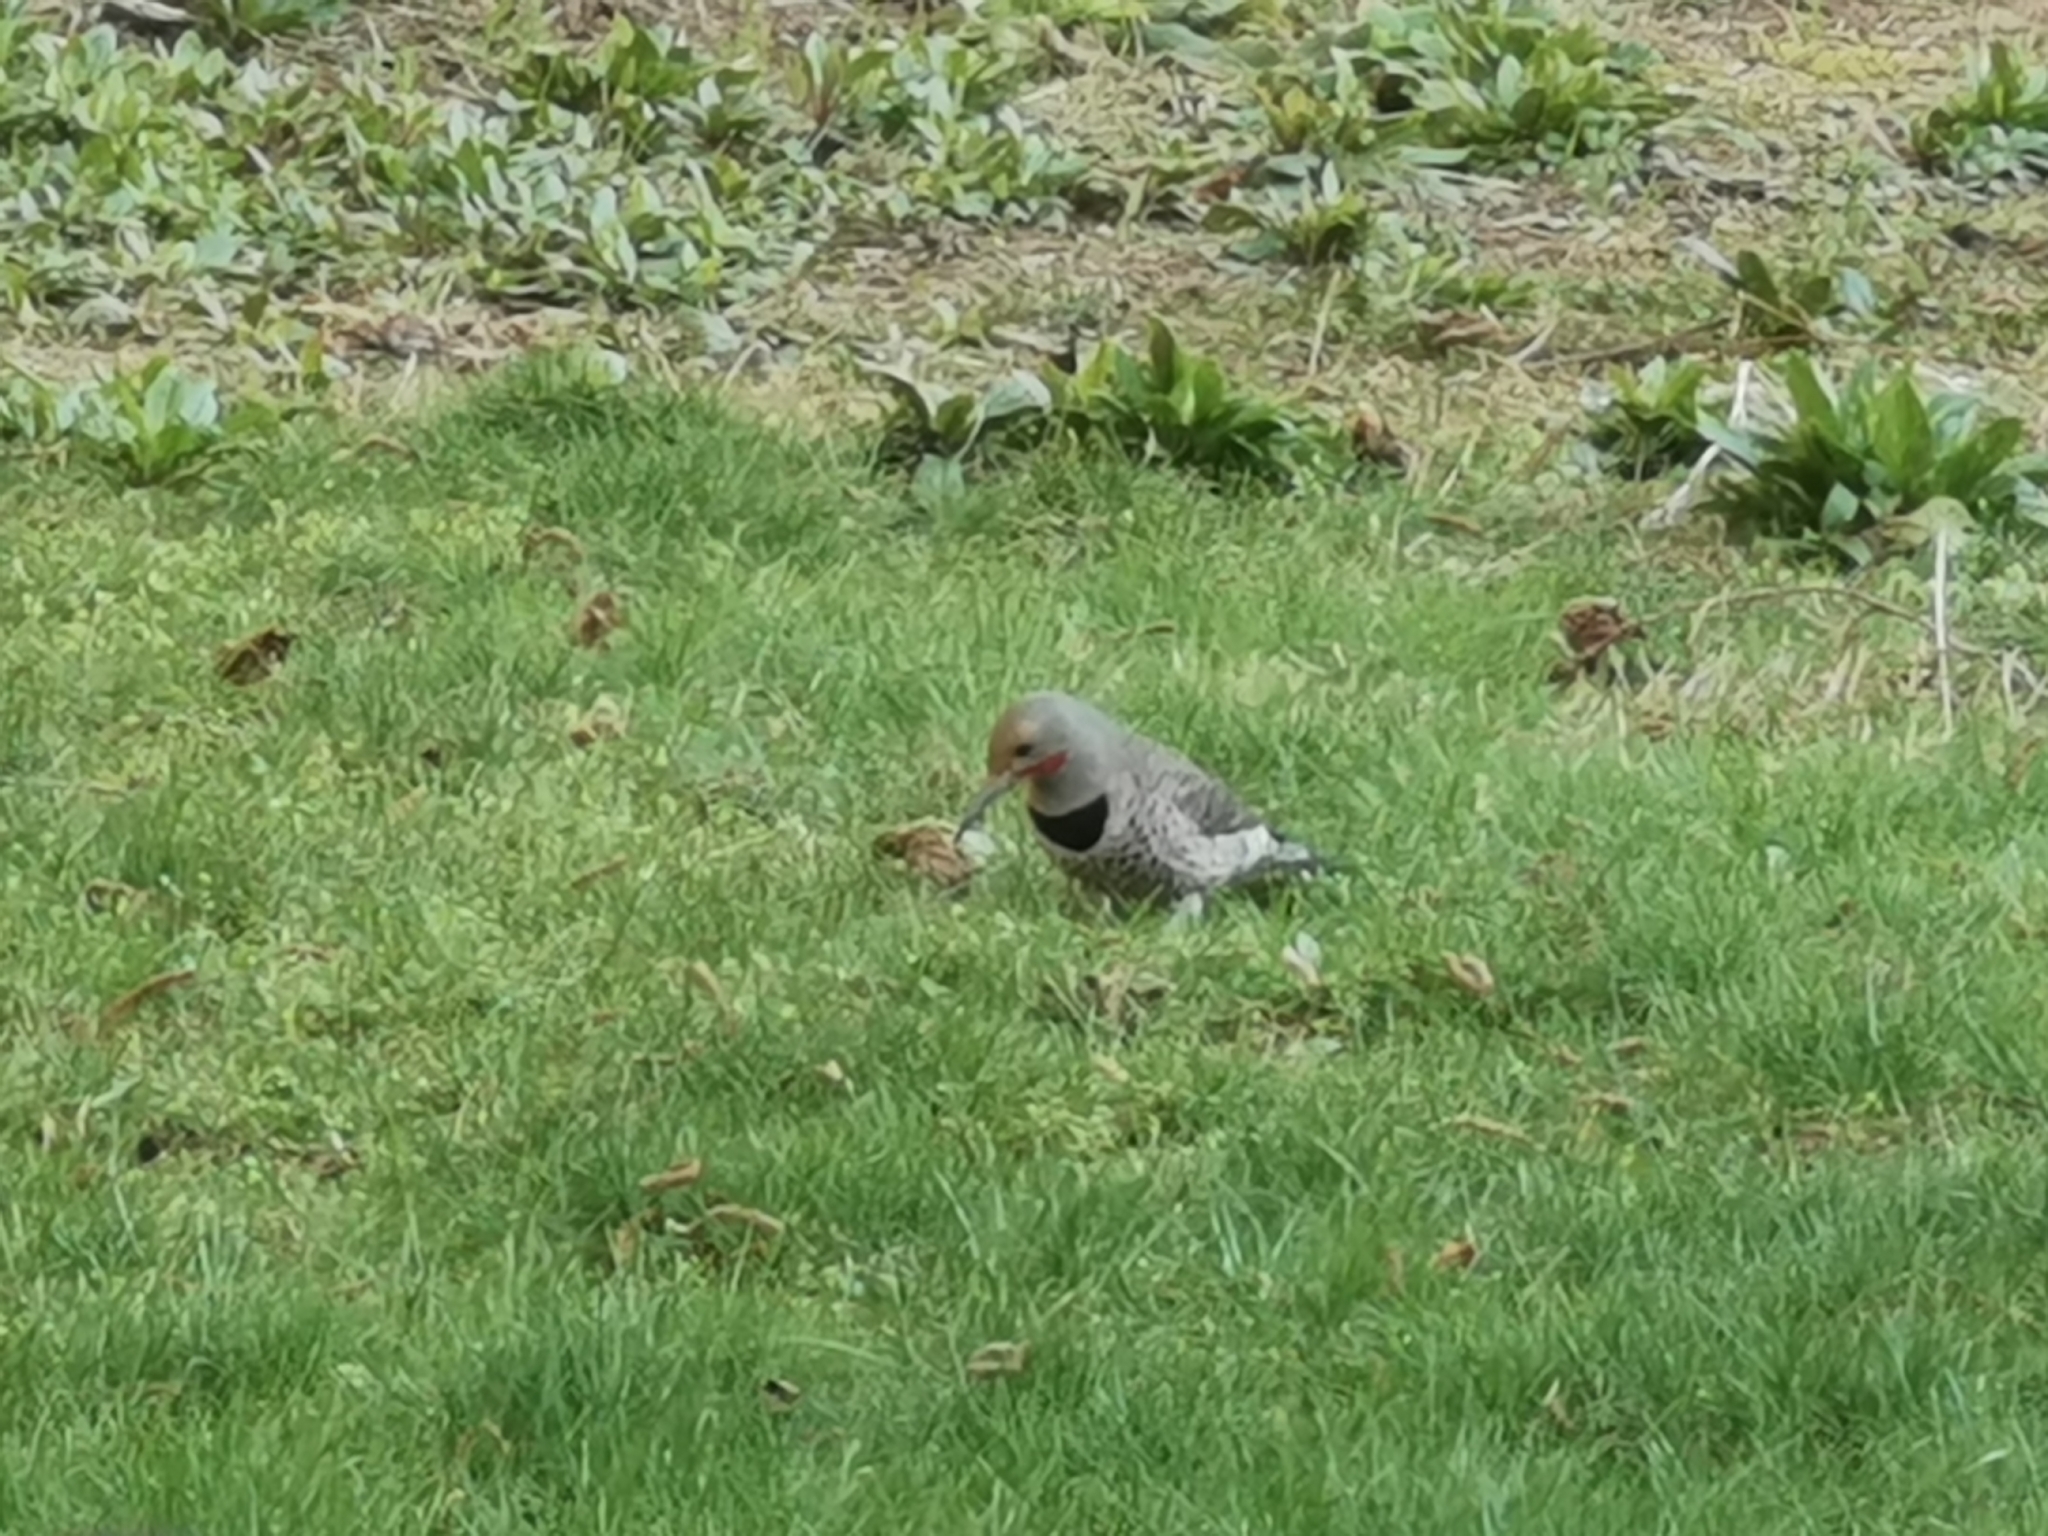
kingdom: Animalia
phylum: Chordata
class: Aves
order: Piciformes
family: Picidae
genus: Colaptes
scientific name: Colaptes auratus
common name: Northern flicker
